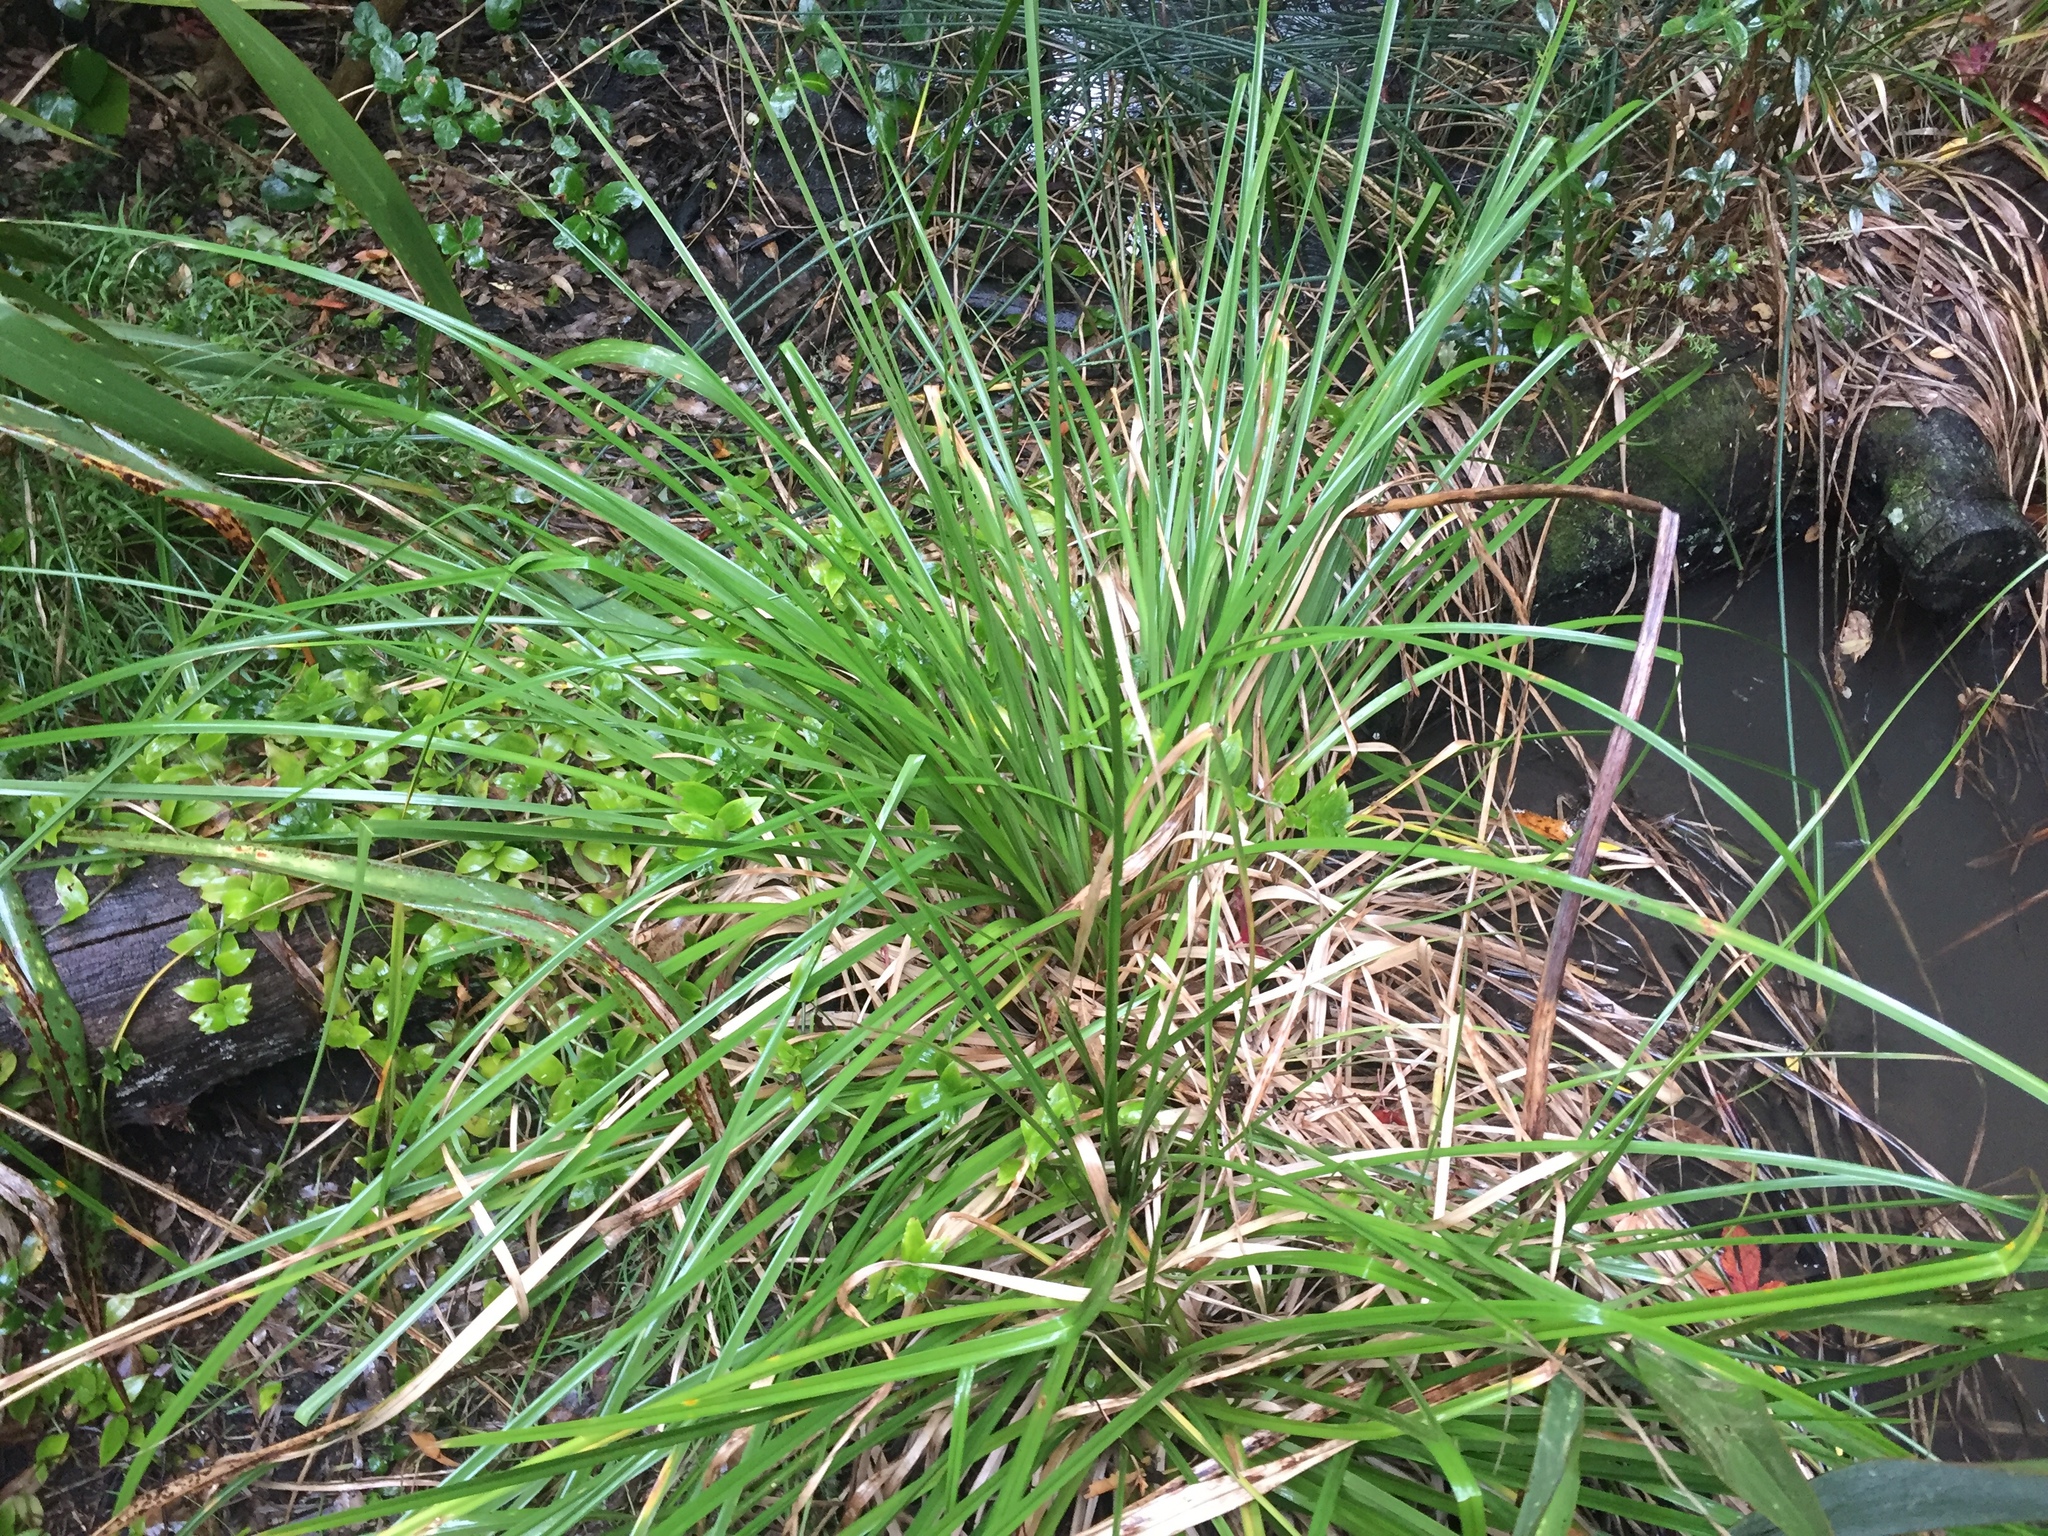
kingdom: Plantae
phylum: Tracheophyta
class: Liliopsida
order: Poales
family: Cyperaceae
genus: Cyperus
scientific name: Cyperus ustulatus
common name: Giant umbrella-sedge
